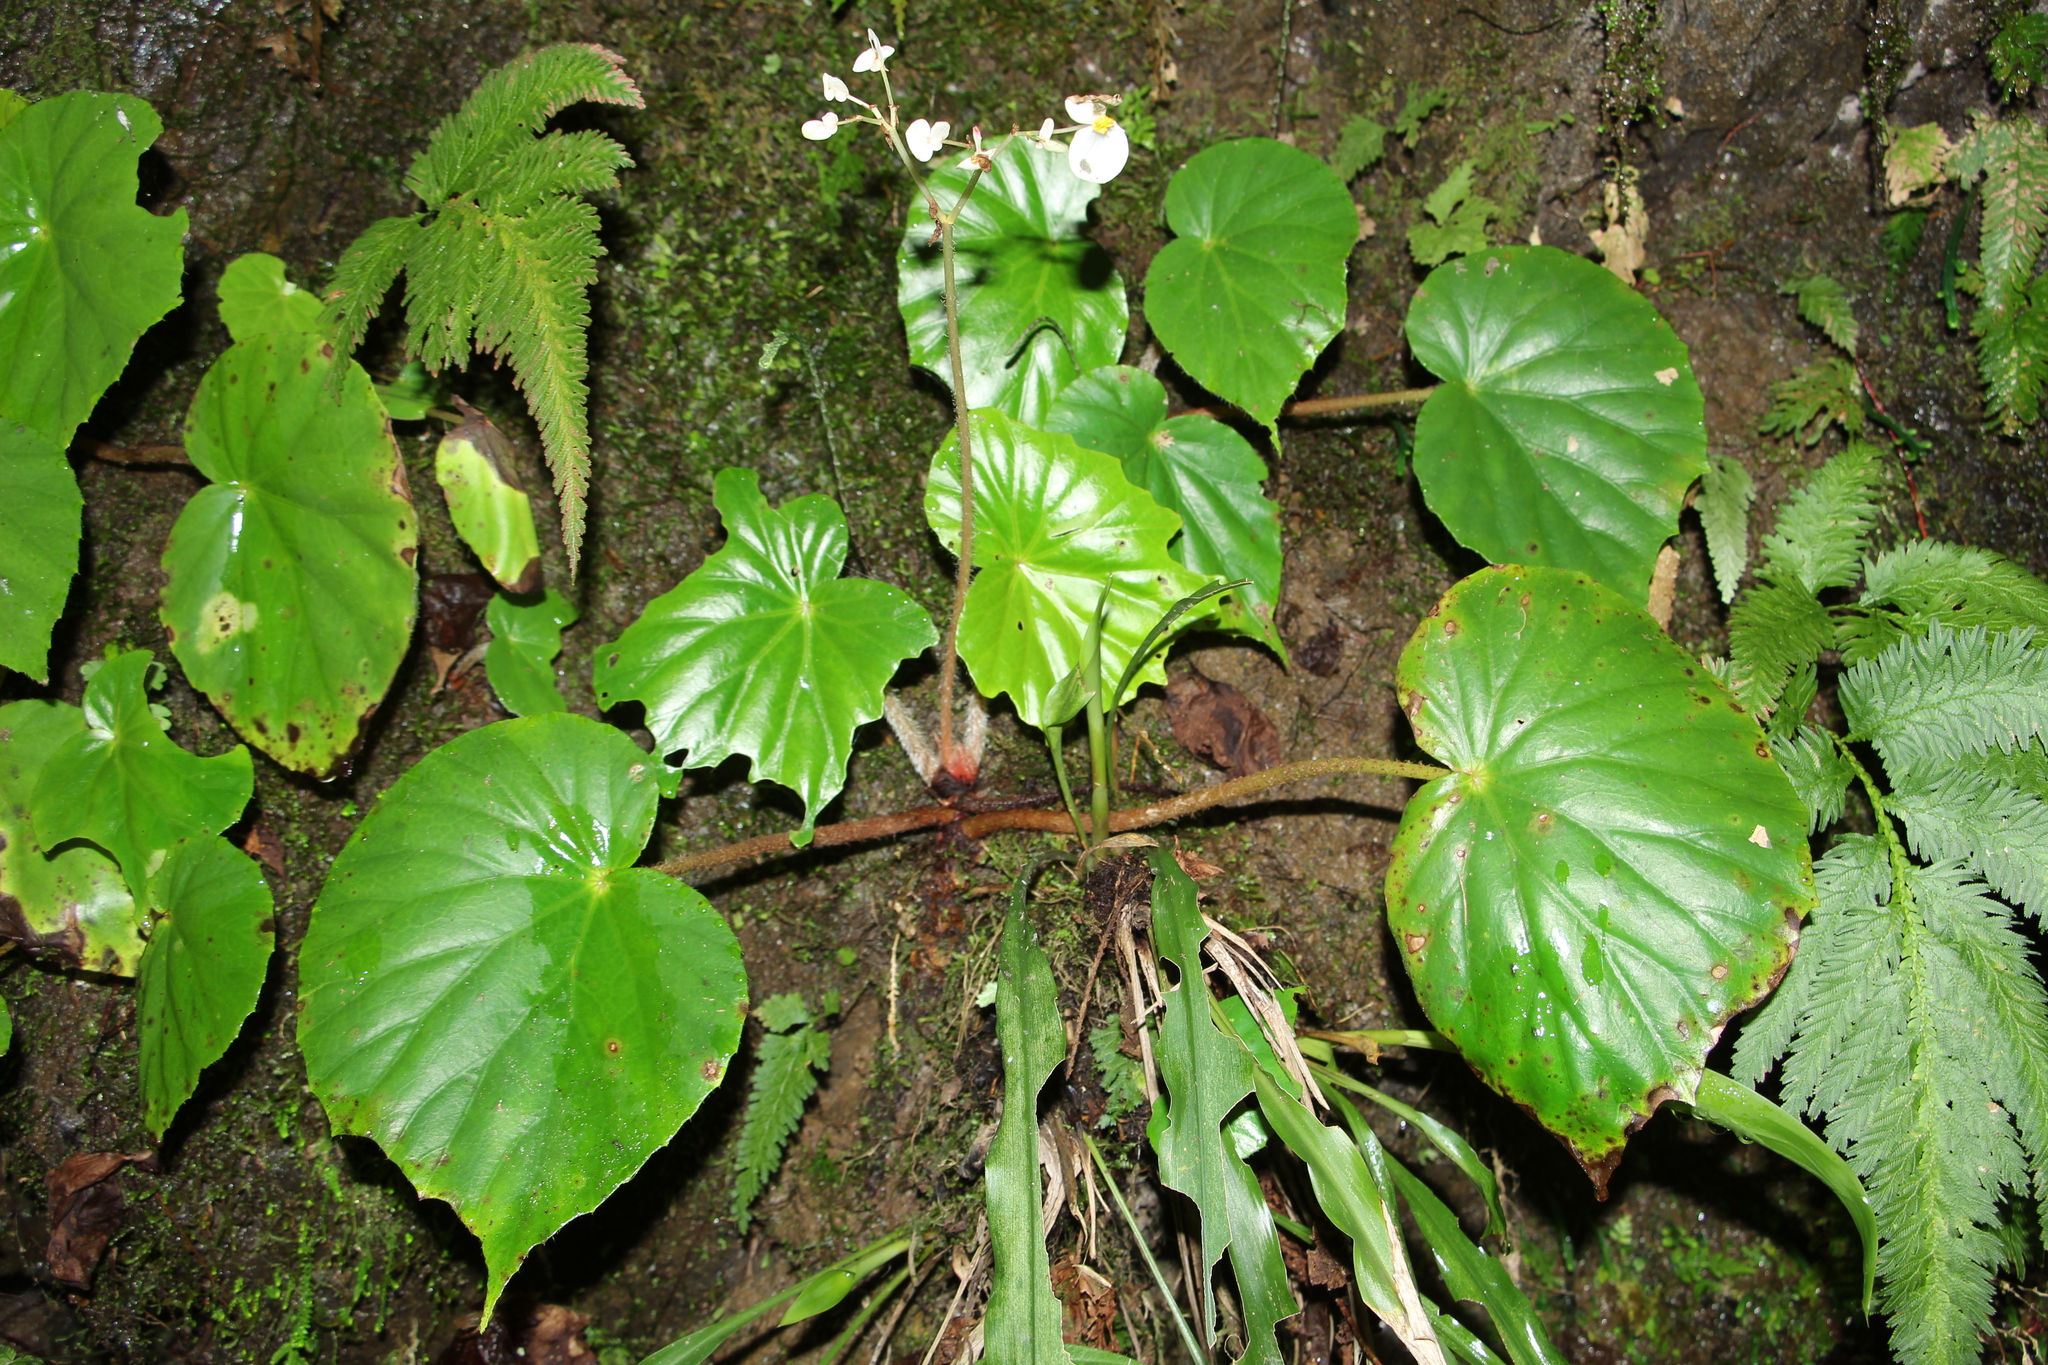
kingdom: Plantae
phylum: Tracheophyta
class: Magnoliopsida
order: Cucurbitales
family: Begoniaceae
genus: Begonia
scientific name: Begonia urophylla
